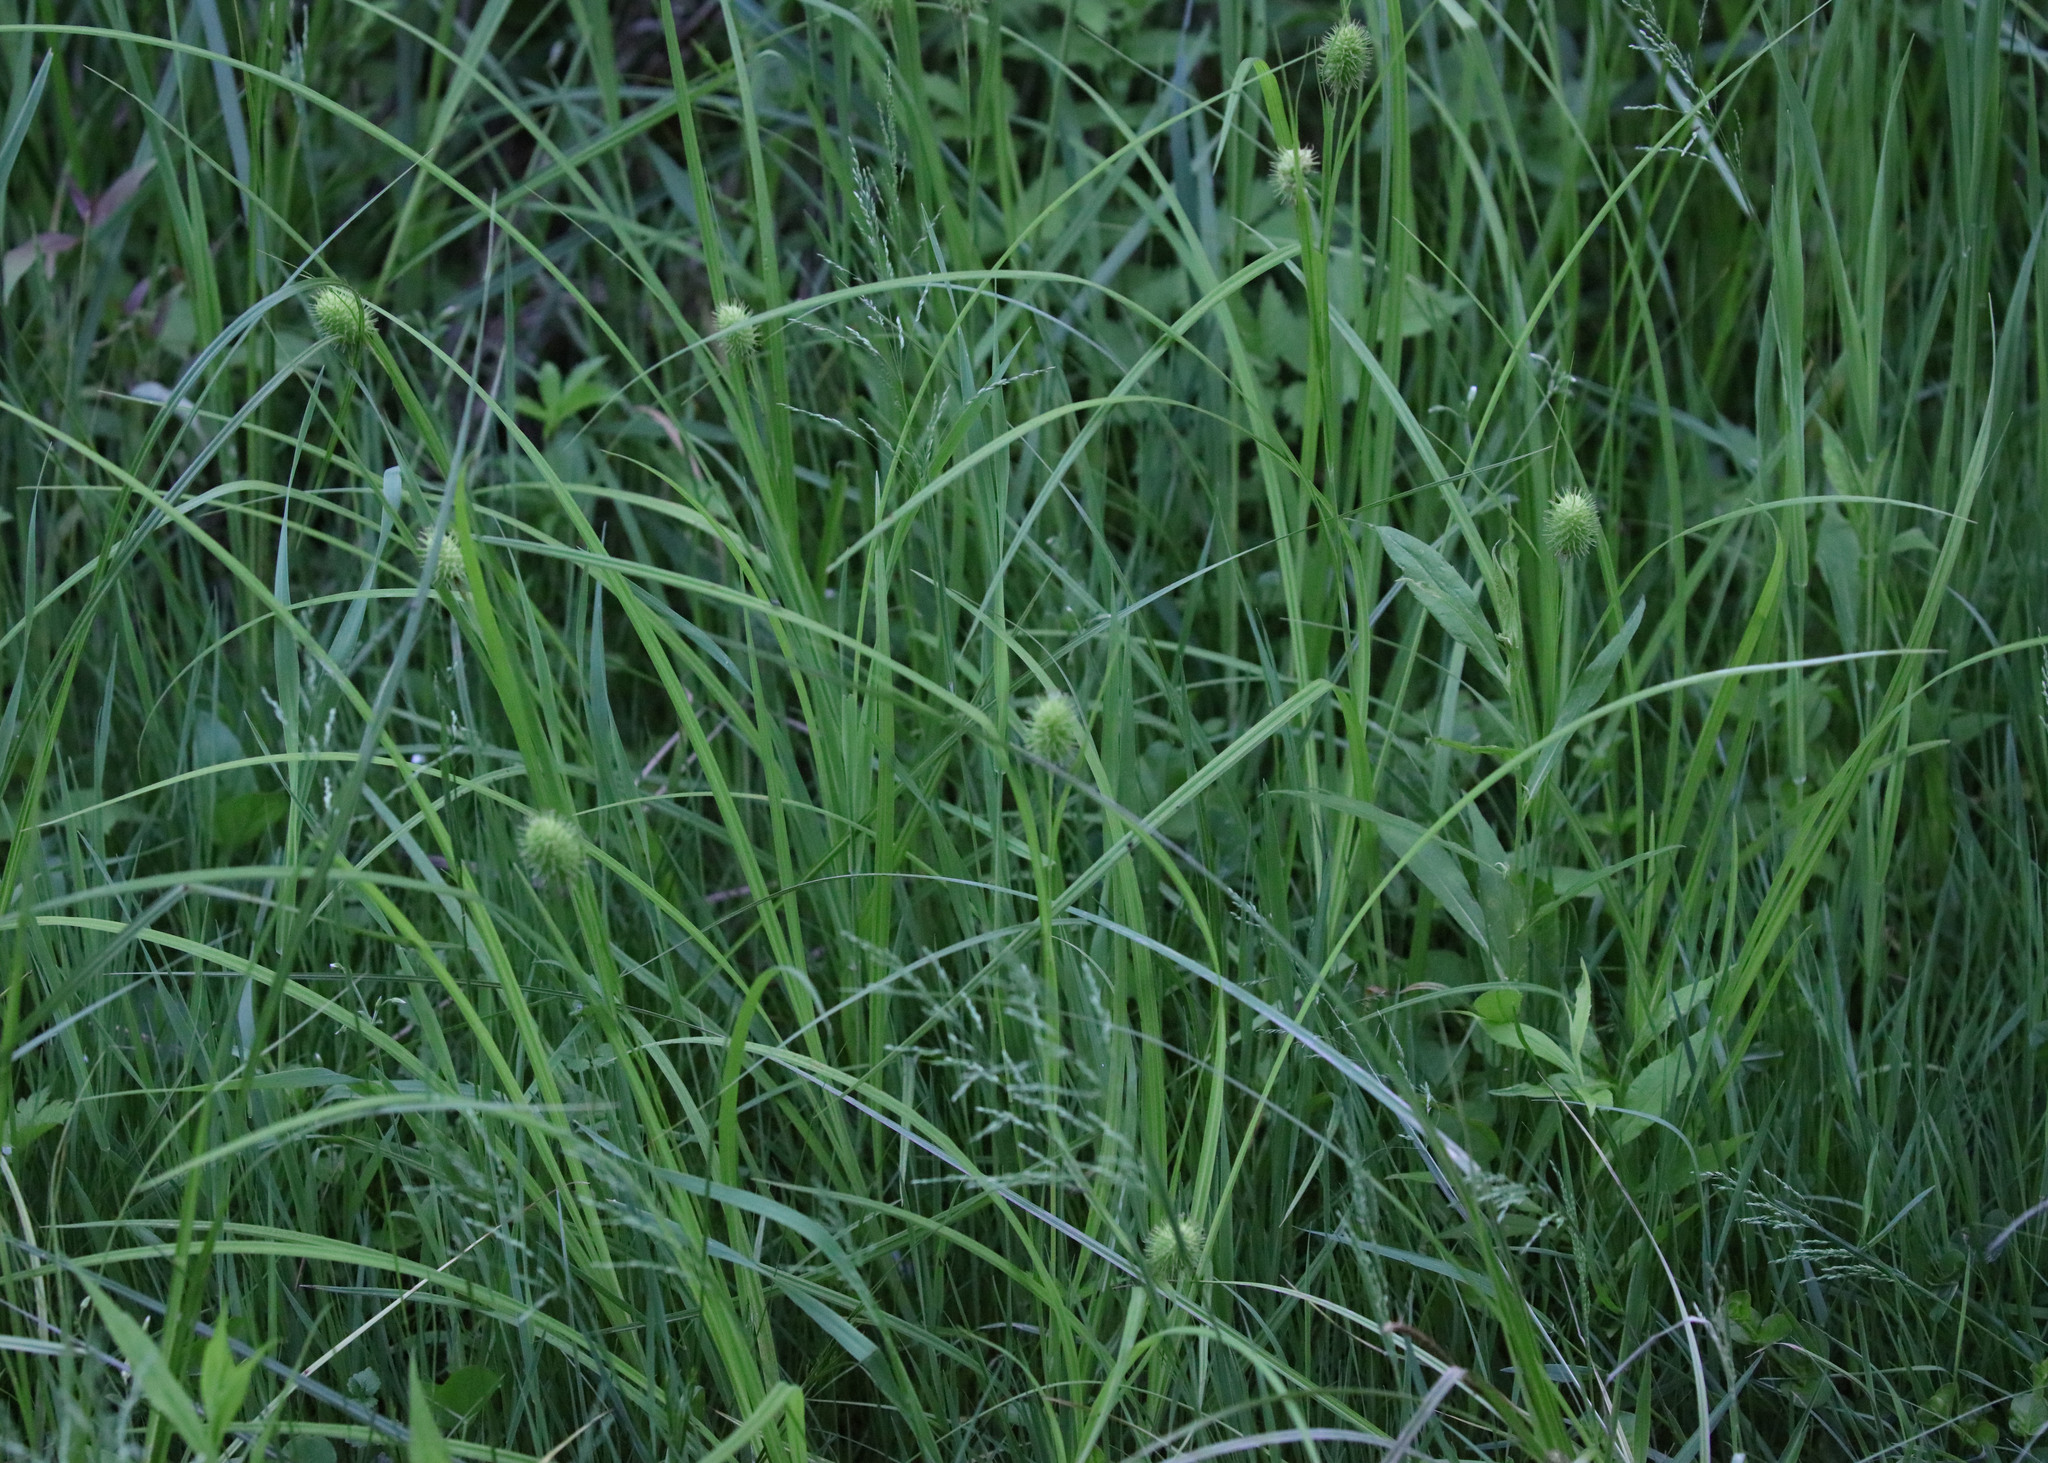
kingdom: Plantae
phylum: Tracheophyta
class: Liliopsida
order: Poales
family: Cyperaceae
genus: Carex
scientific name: Carex squarrosa
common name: Narrow-leaved cattail sedge
